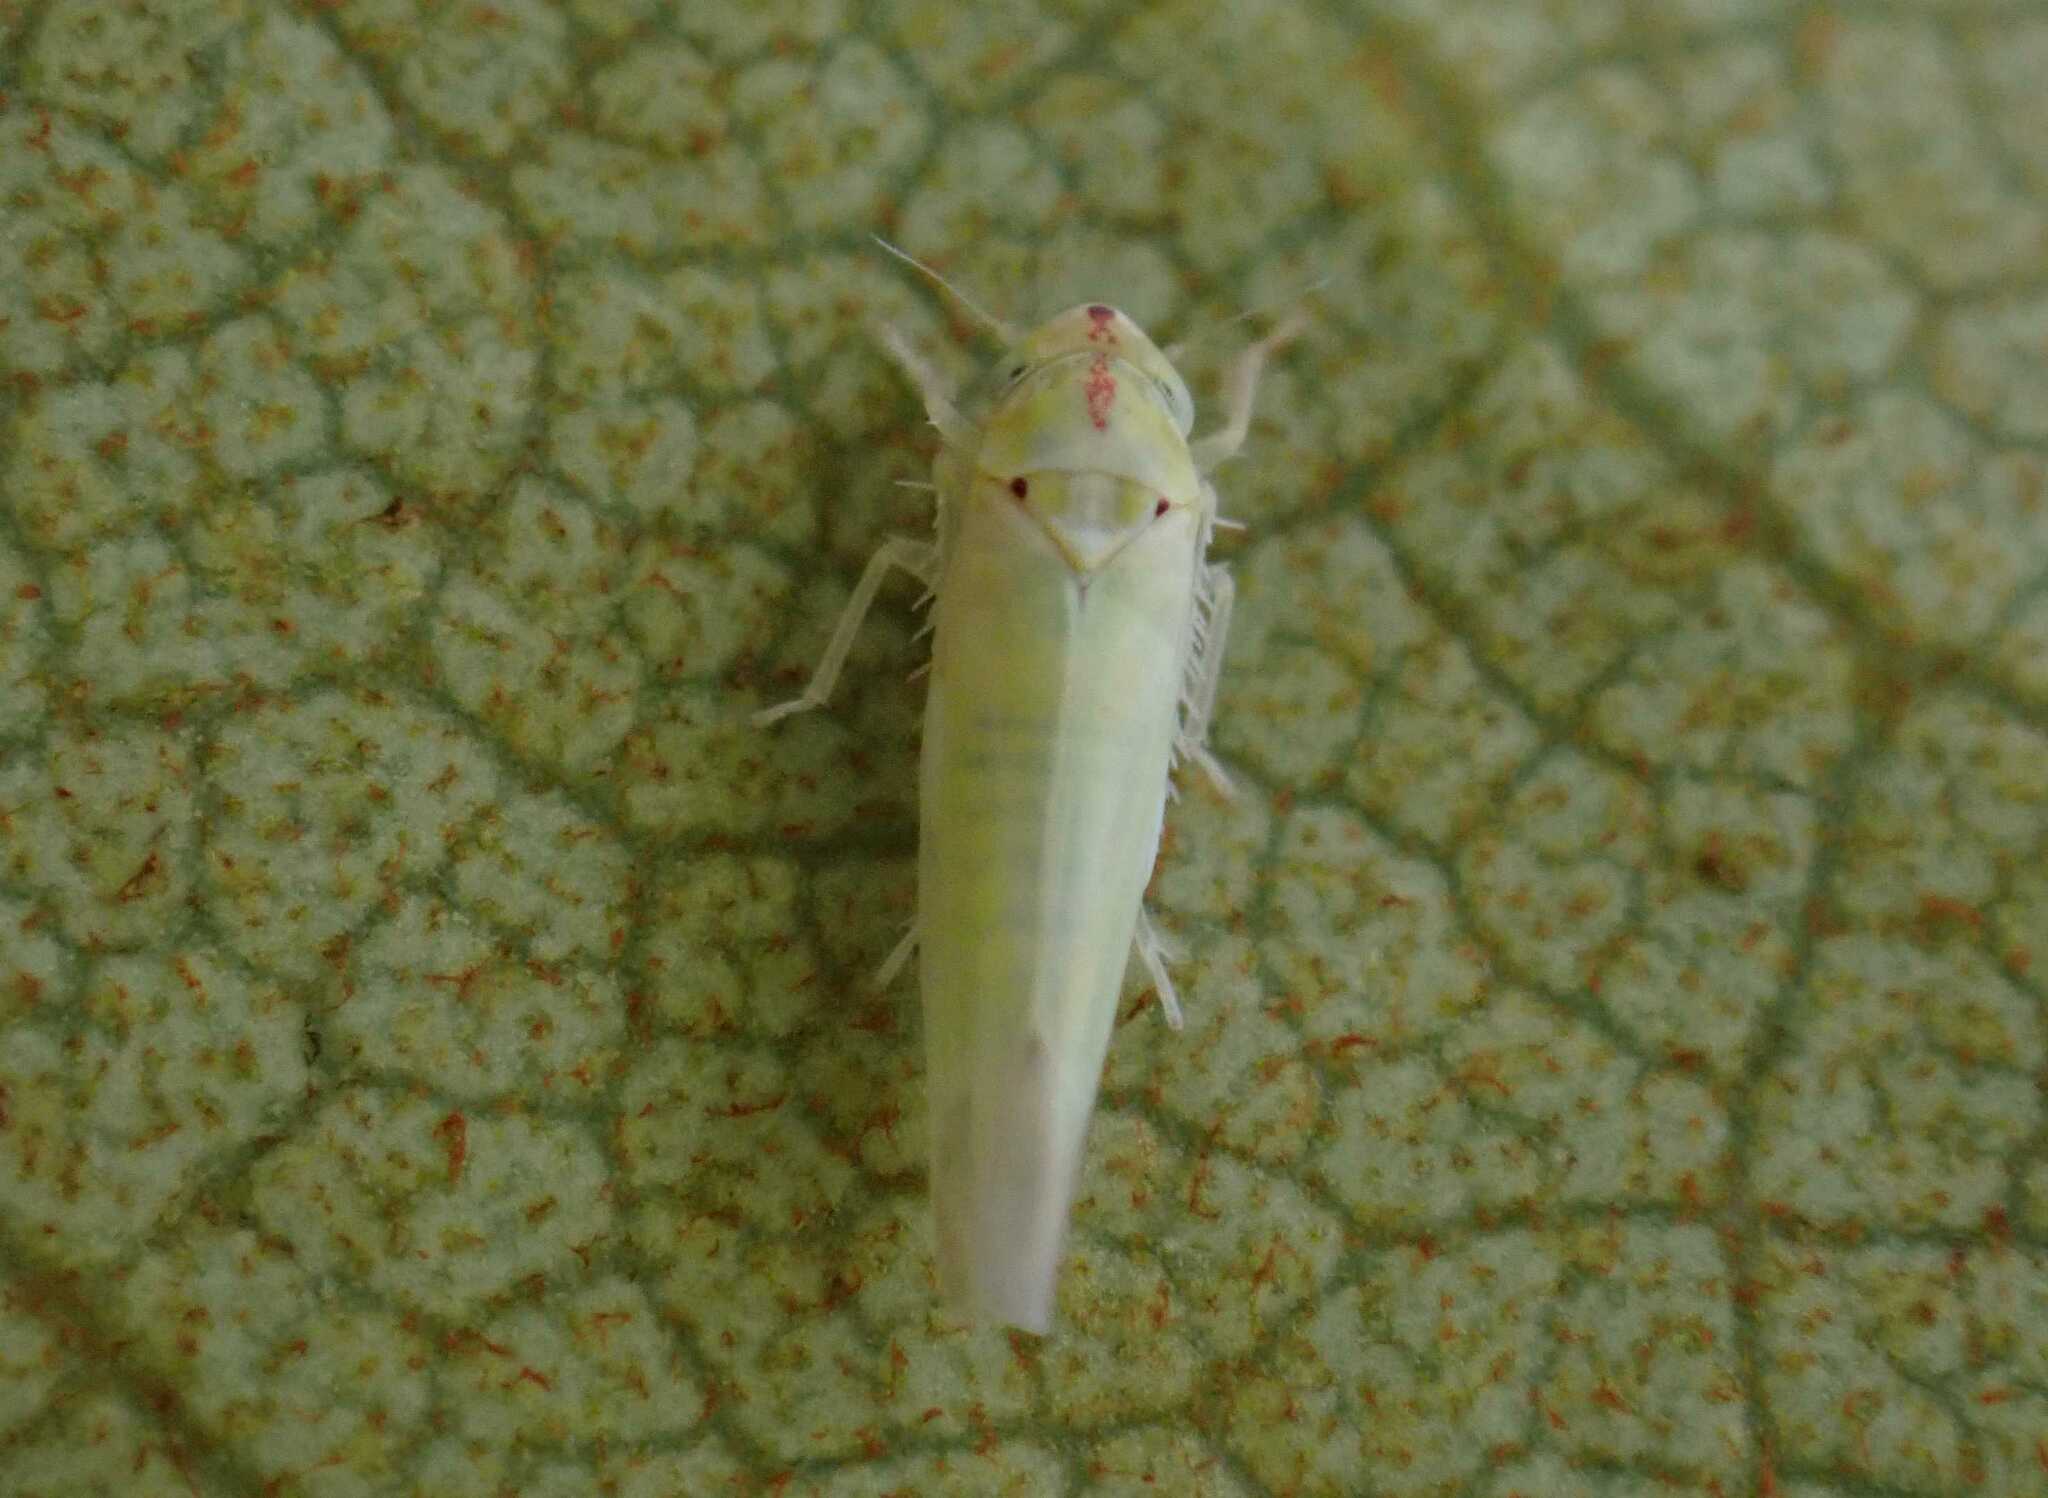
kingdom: Animalia
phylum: Arthropoda
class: Insecta
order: Hemiptera
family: Cicadellidae
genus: Zygina
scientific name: Zygina nivea
